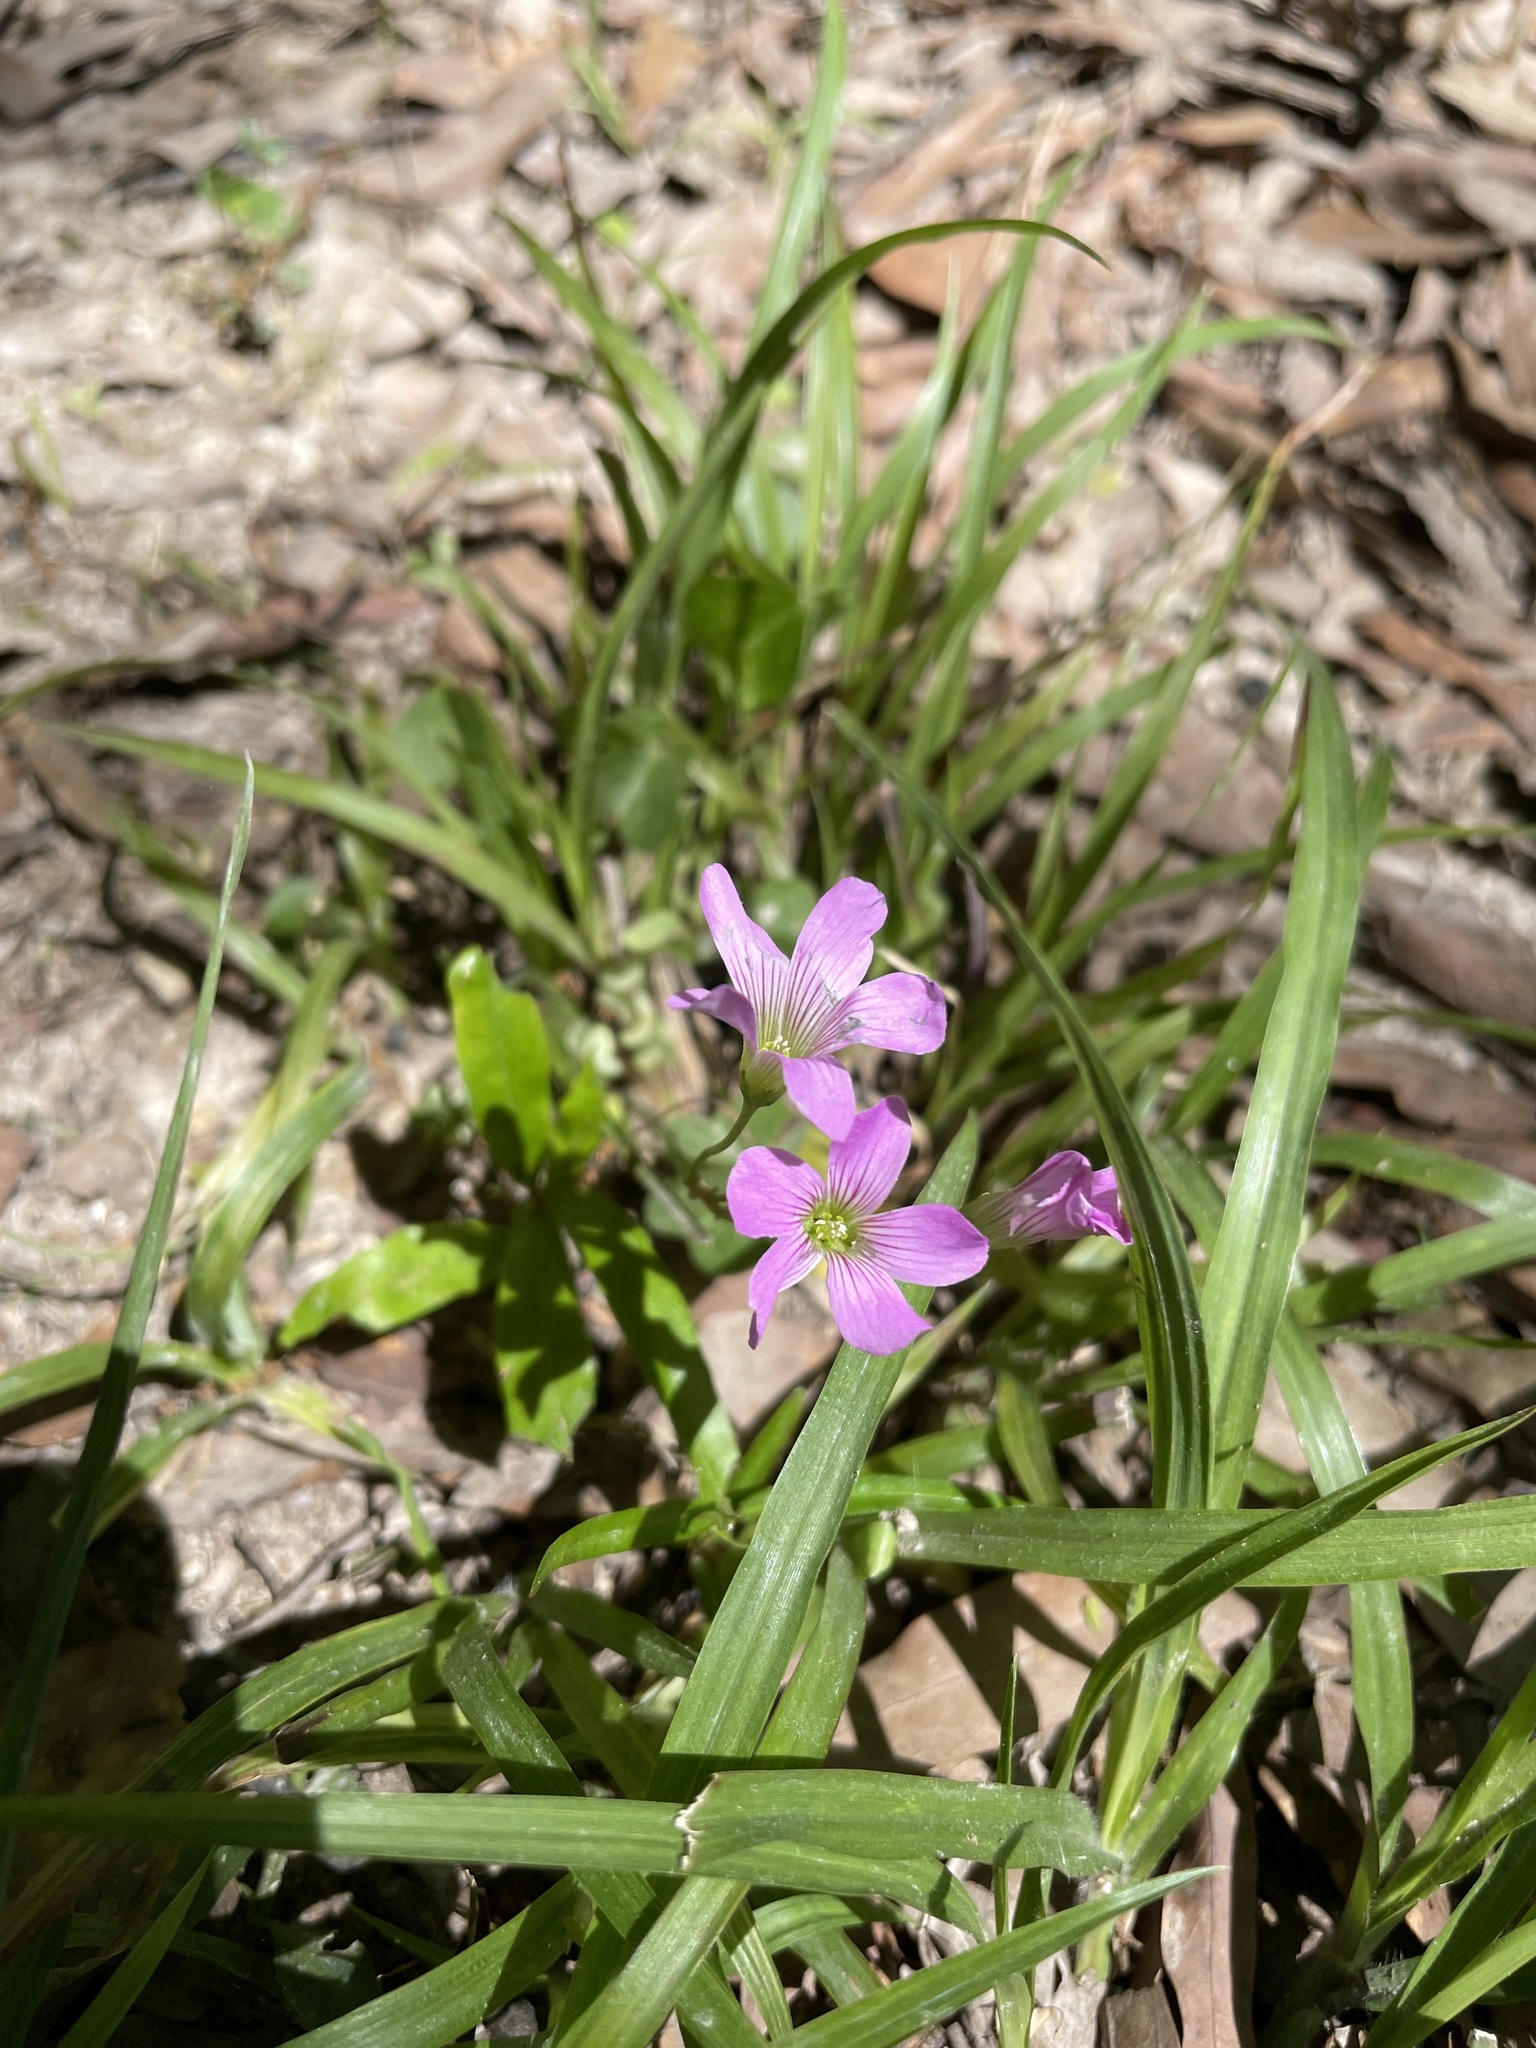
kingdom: Plantae
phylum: Tracheophyta
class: Magnoliopsida
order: Oxalidales
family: Oxalidaceae
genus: Oxalis
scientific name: Oxalis debilis
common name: Large-flowered pink-sorrel
